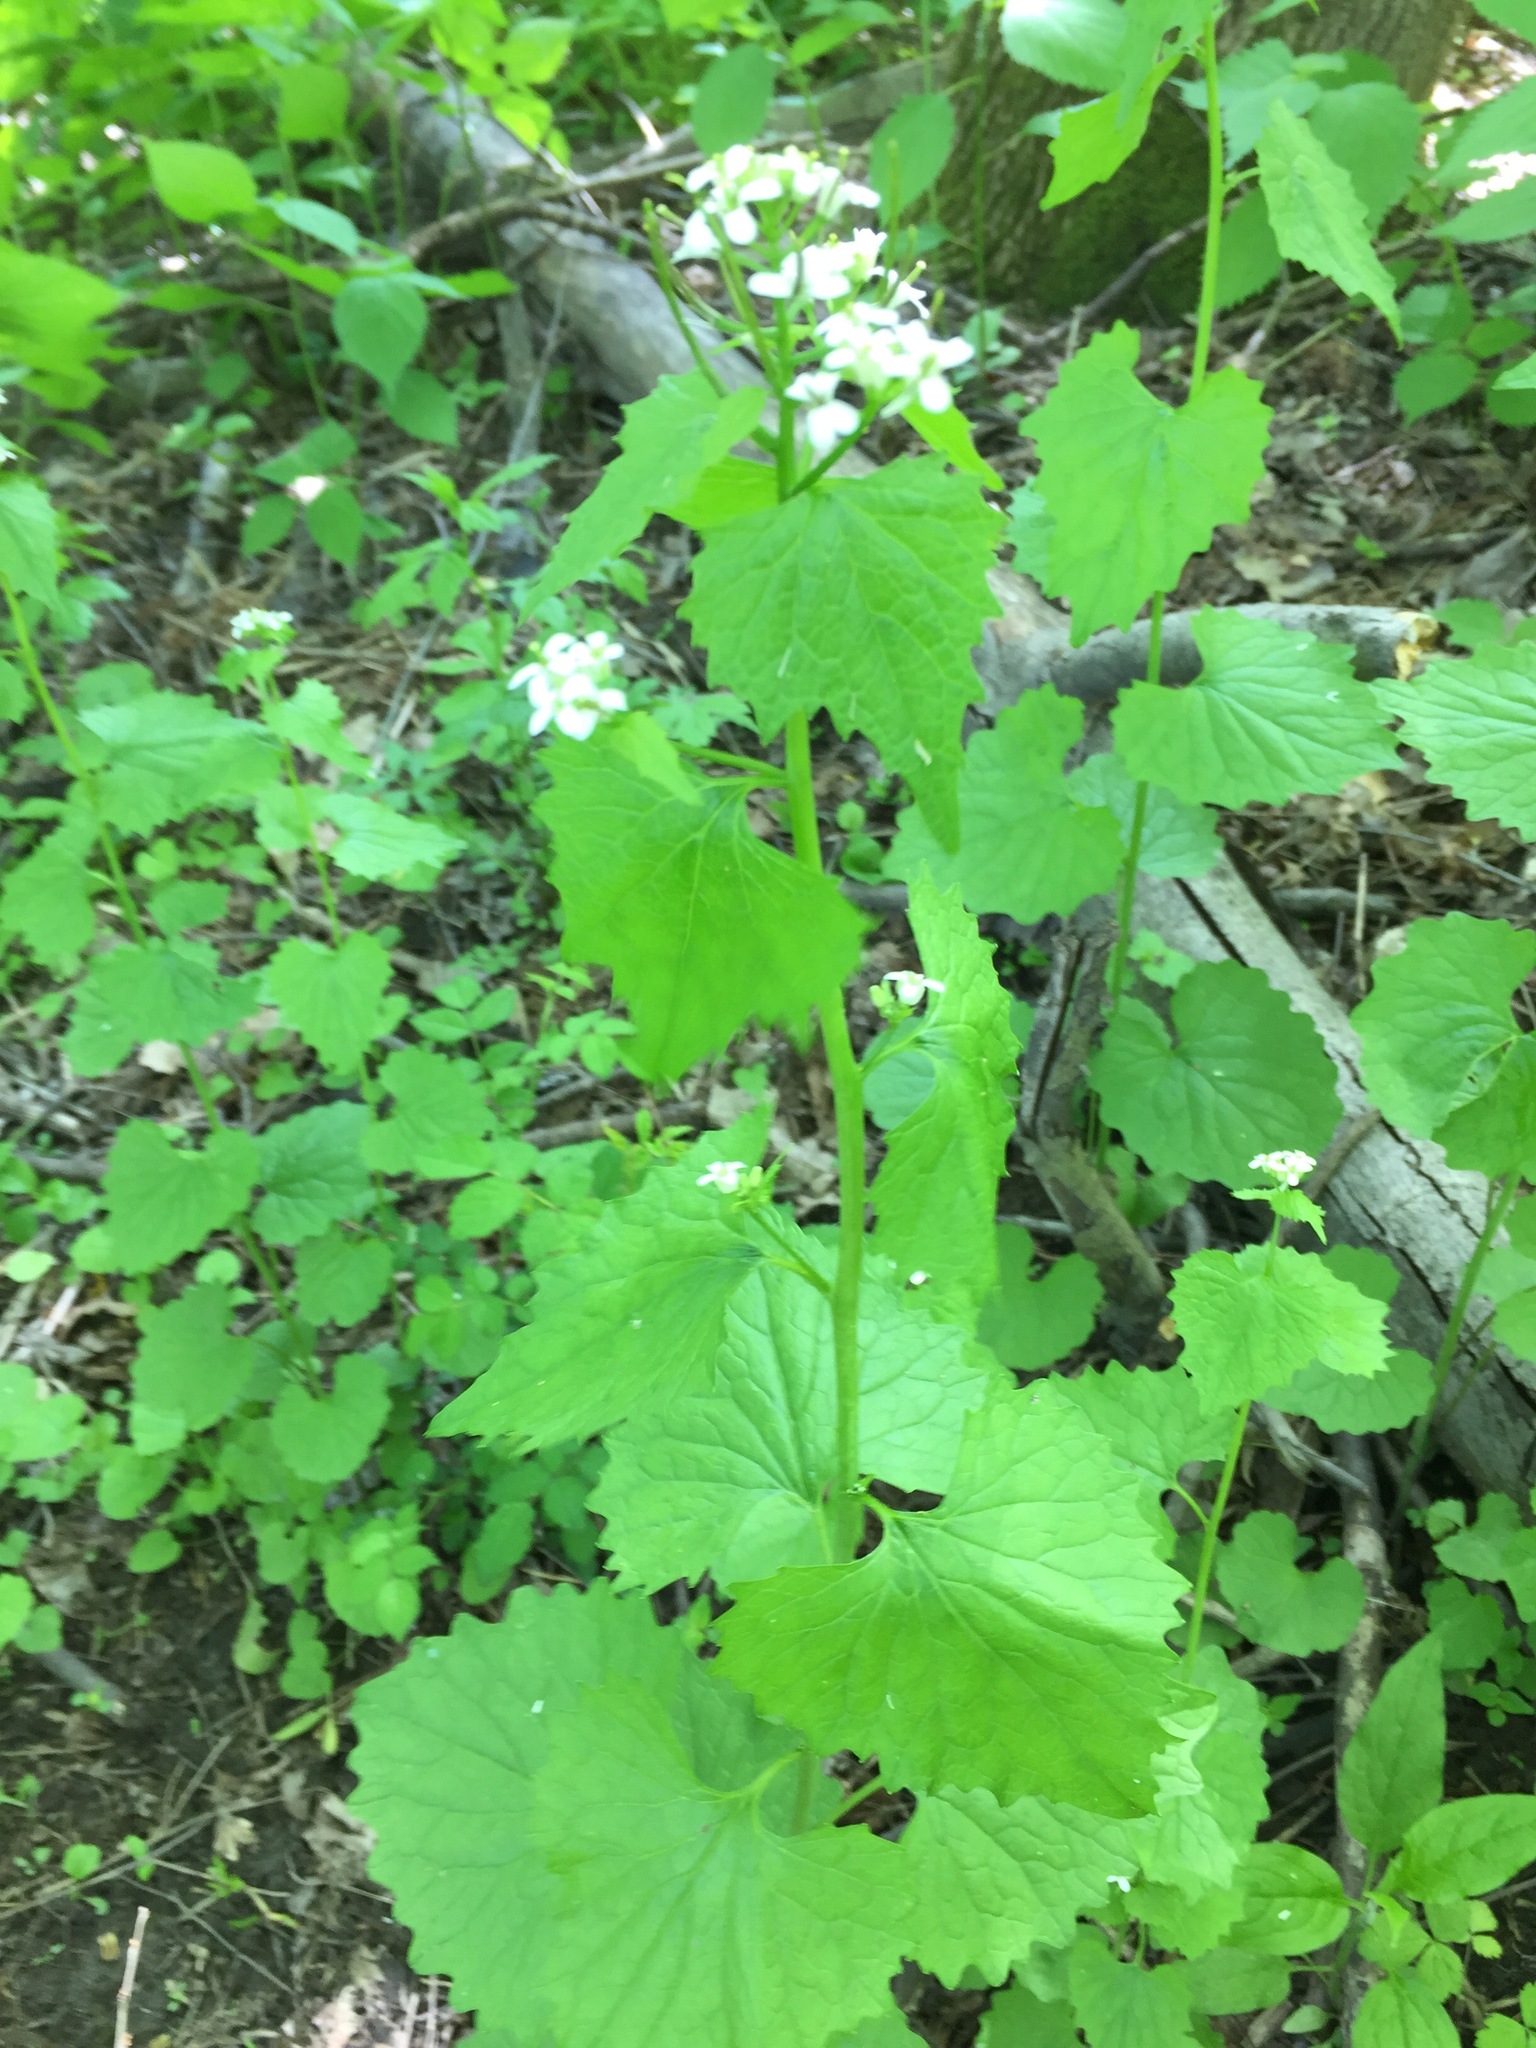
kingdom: Plantae
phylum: Tracheophyta
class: Magnoliopsida
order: Brassicales
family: Brassicaceae
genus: Alliaria
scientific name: Alliaria petiolata
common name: Garlic mustard
